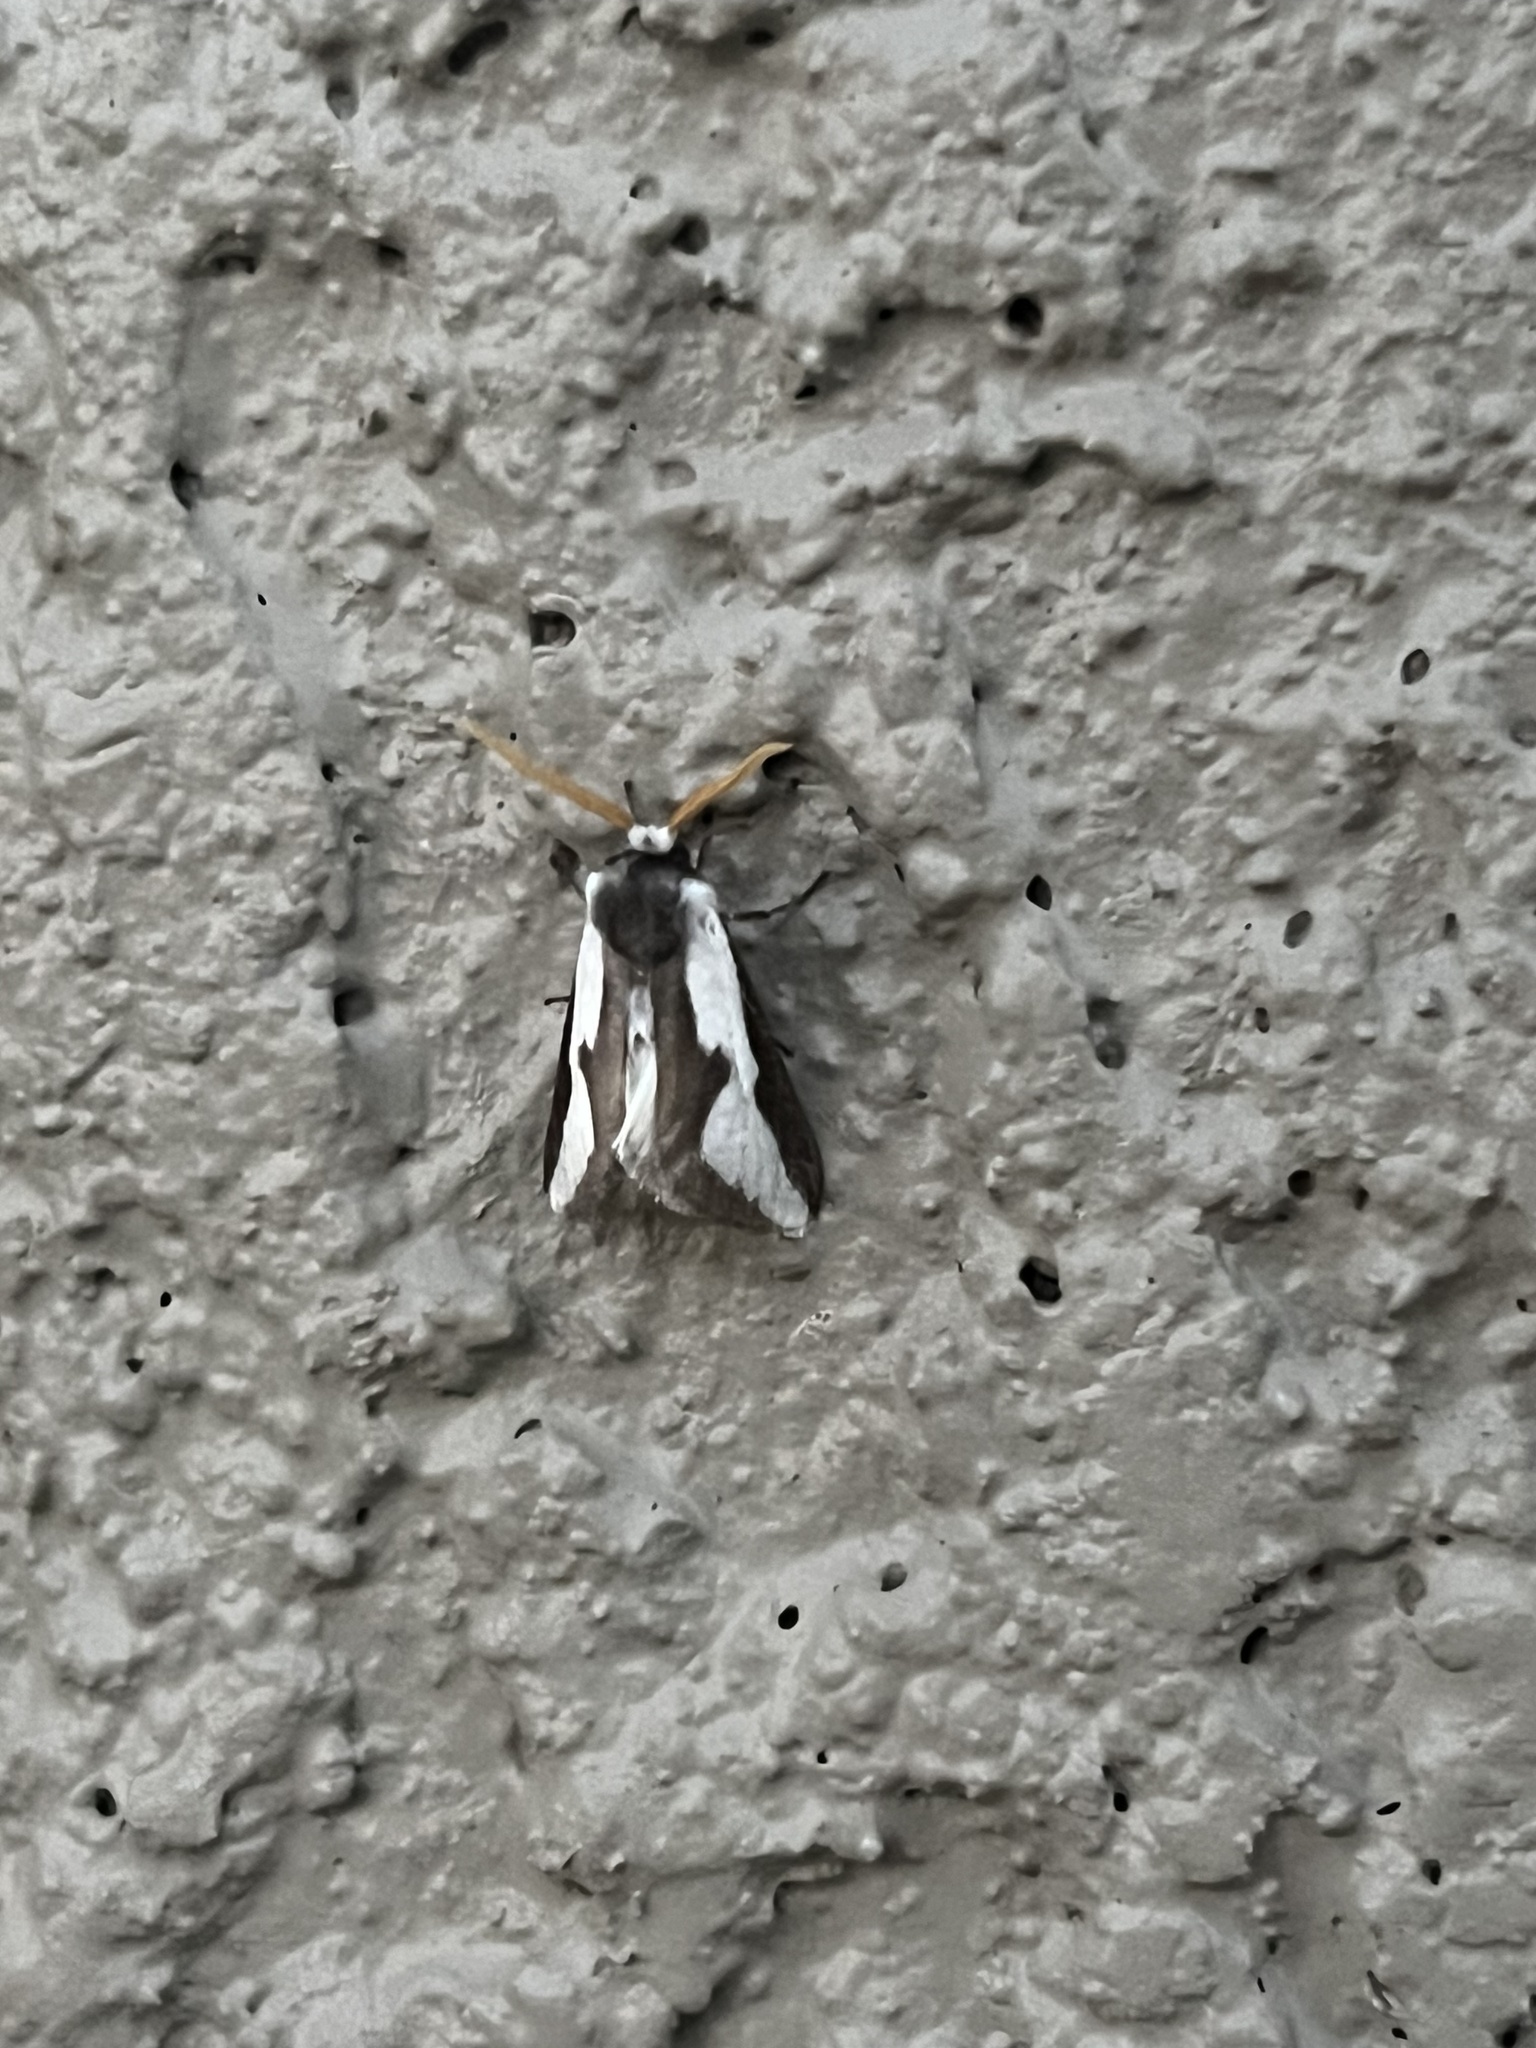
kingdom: Animalia
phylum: Arthropoda
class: Insecta
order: Lepidoptera
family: Megalopygidae
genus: Norape
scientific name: Norape tener
